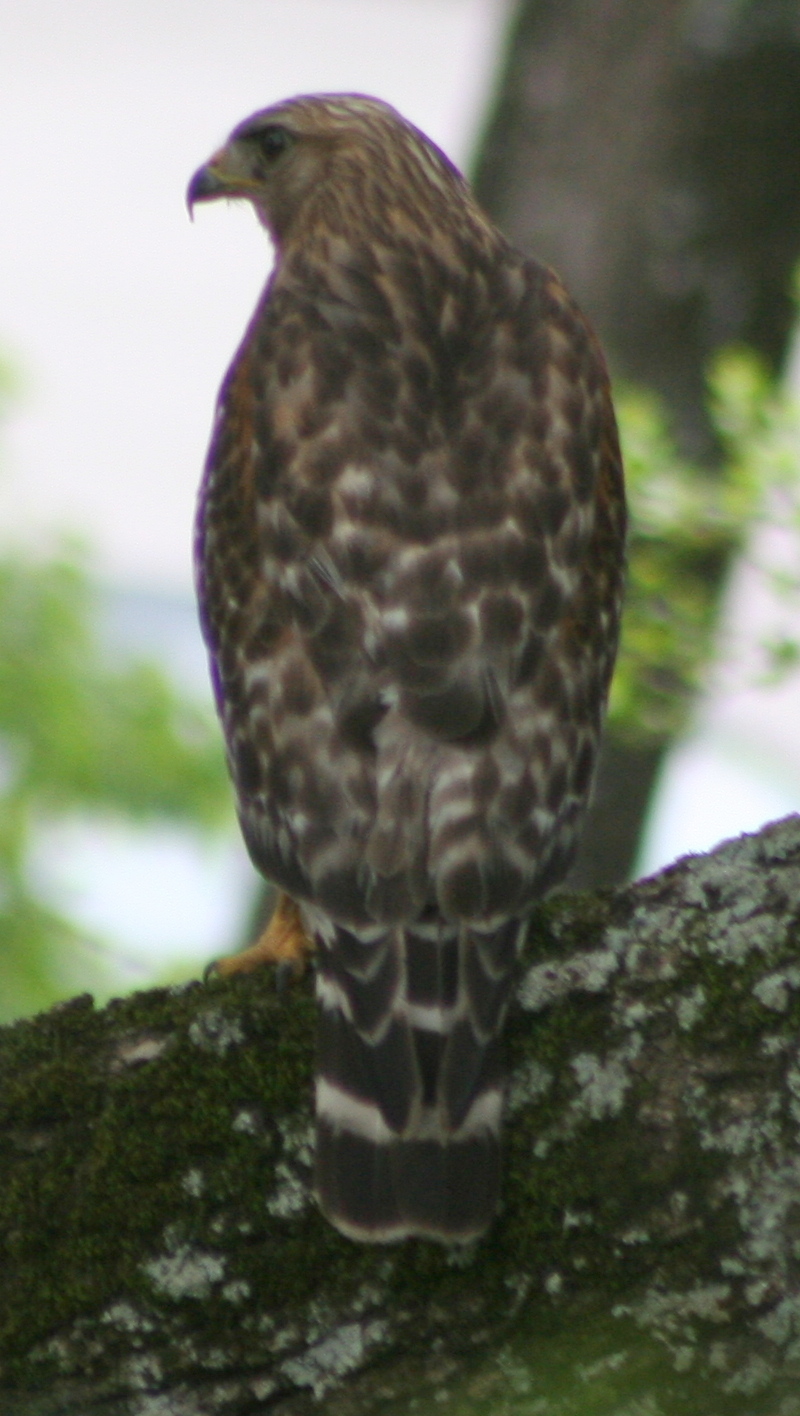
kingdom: Animalia
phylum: Chordata
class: Aves
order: Accipitriformes
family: Accipitridae
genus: Buteo
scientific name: Buteo lineatus
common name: Red-shouldered hawk
